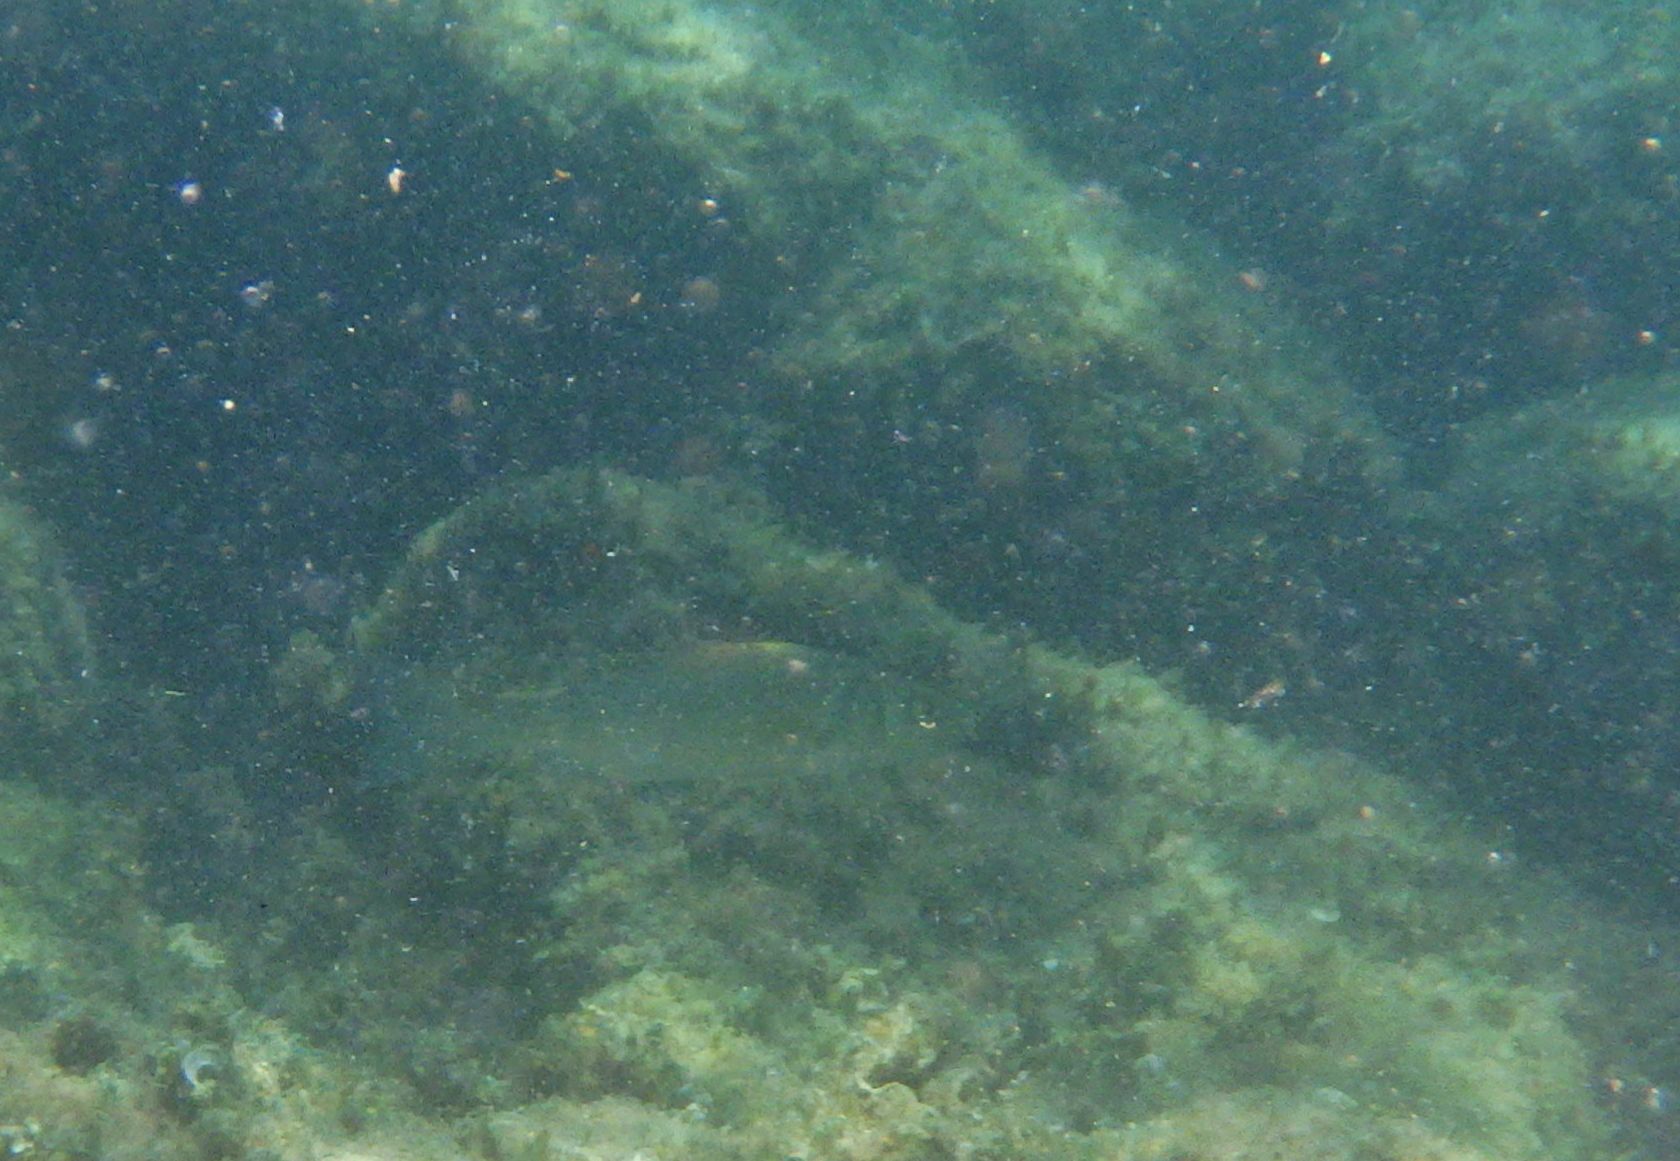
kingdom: Animalia
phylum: Chordata
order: Perciformes
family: Moronidae
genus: Dicentrarchus
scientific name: Dicentrarchus labrax
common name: European seabass
